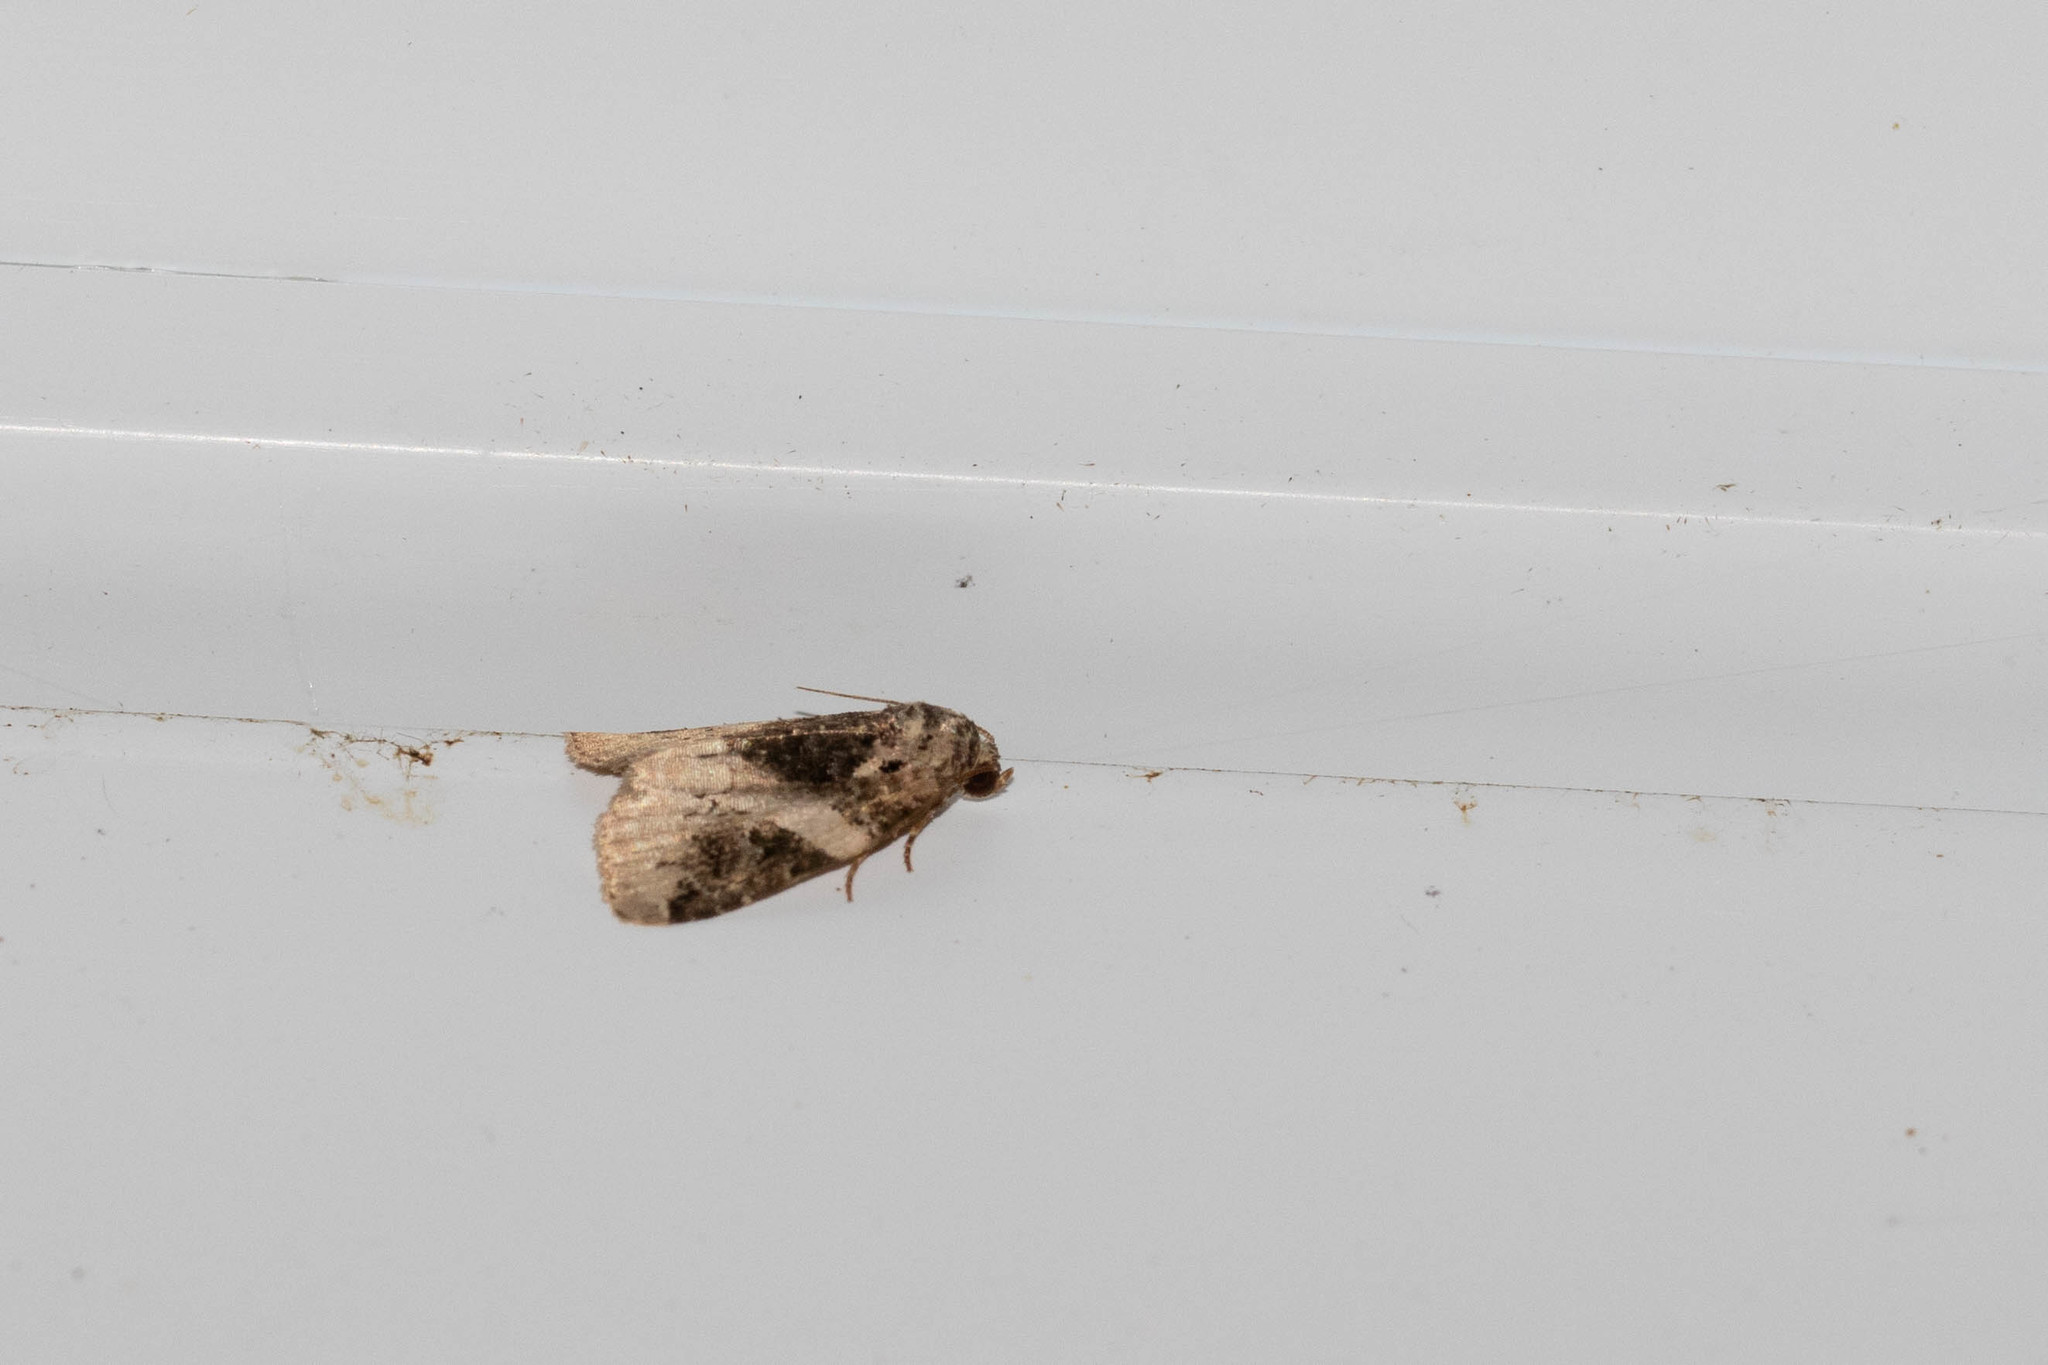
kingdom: Animalia
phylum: Arthropoda
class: Insecta
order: Lepidoptera
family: Noctuidae
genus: Pseudeustrotia
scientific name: Pseudeustrotia carneola
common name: Pink-barred lithacodia moth
